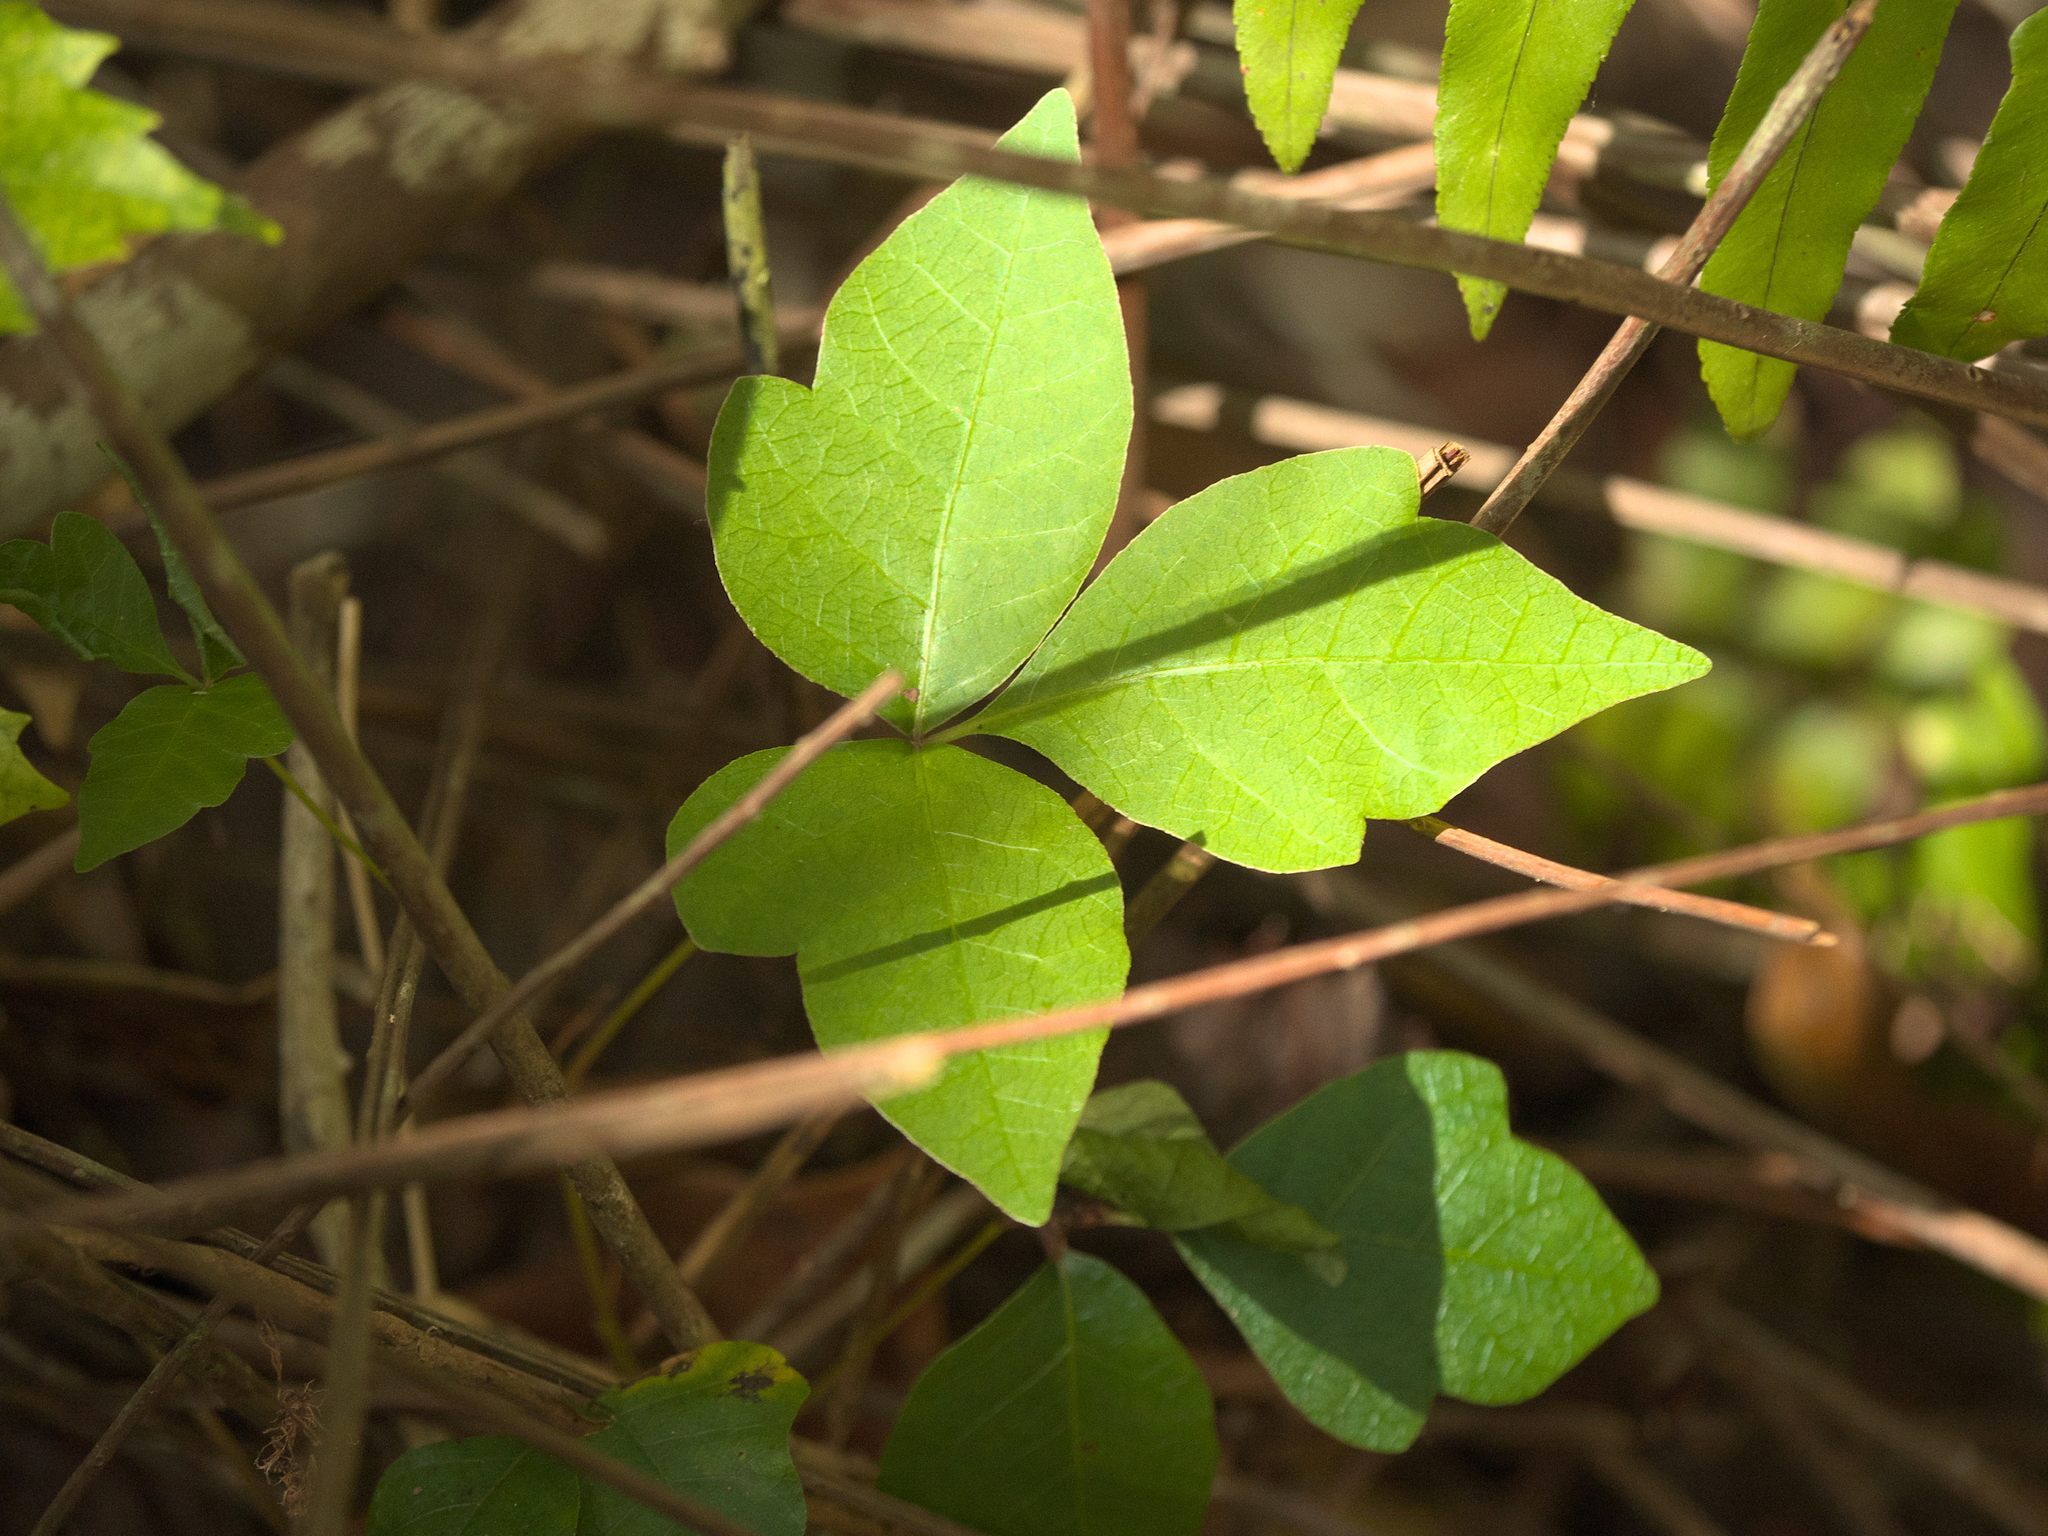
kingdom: Plantae
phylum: Tracheophyta
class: Magnoliopsida
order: Sapindales
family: Anacardiaceae
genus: Toxicodendron
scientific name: Toxicodendron radicans
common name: Poison ivy
